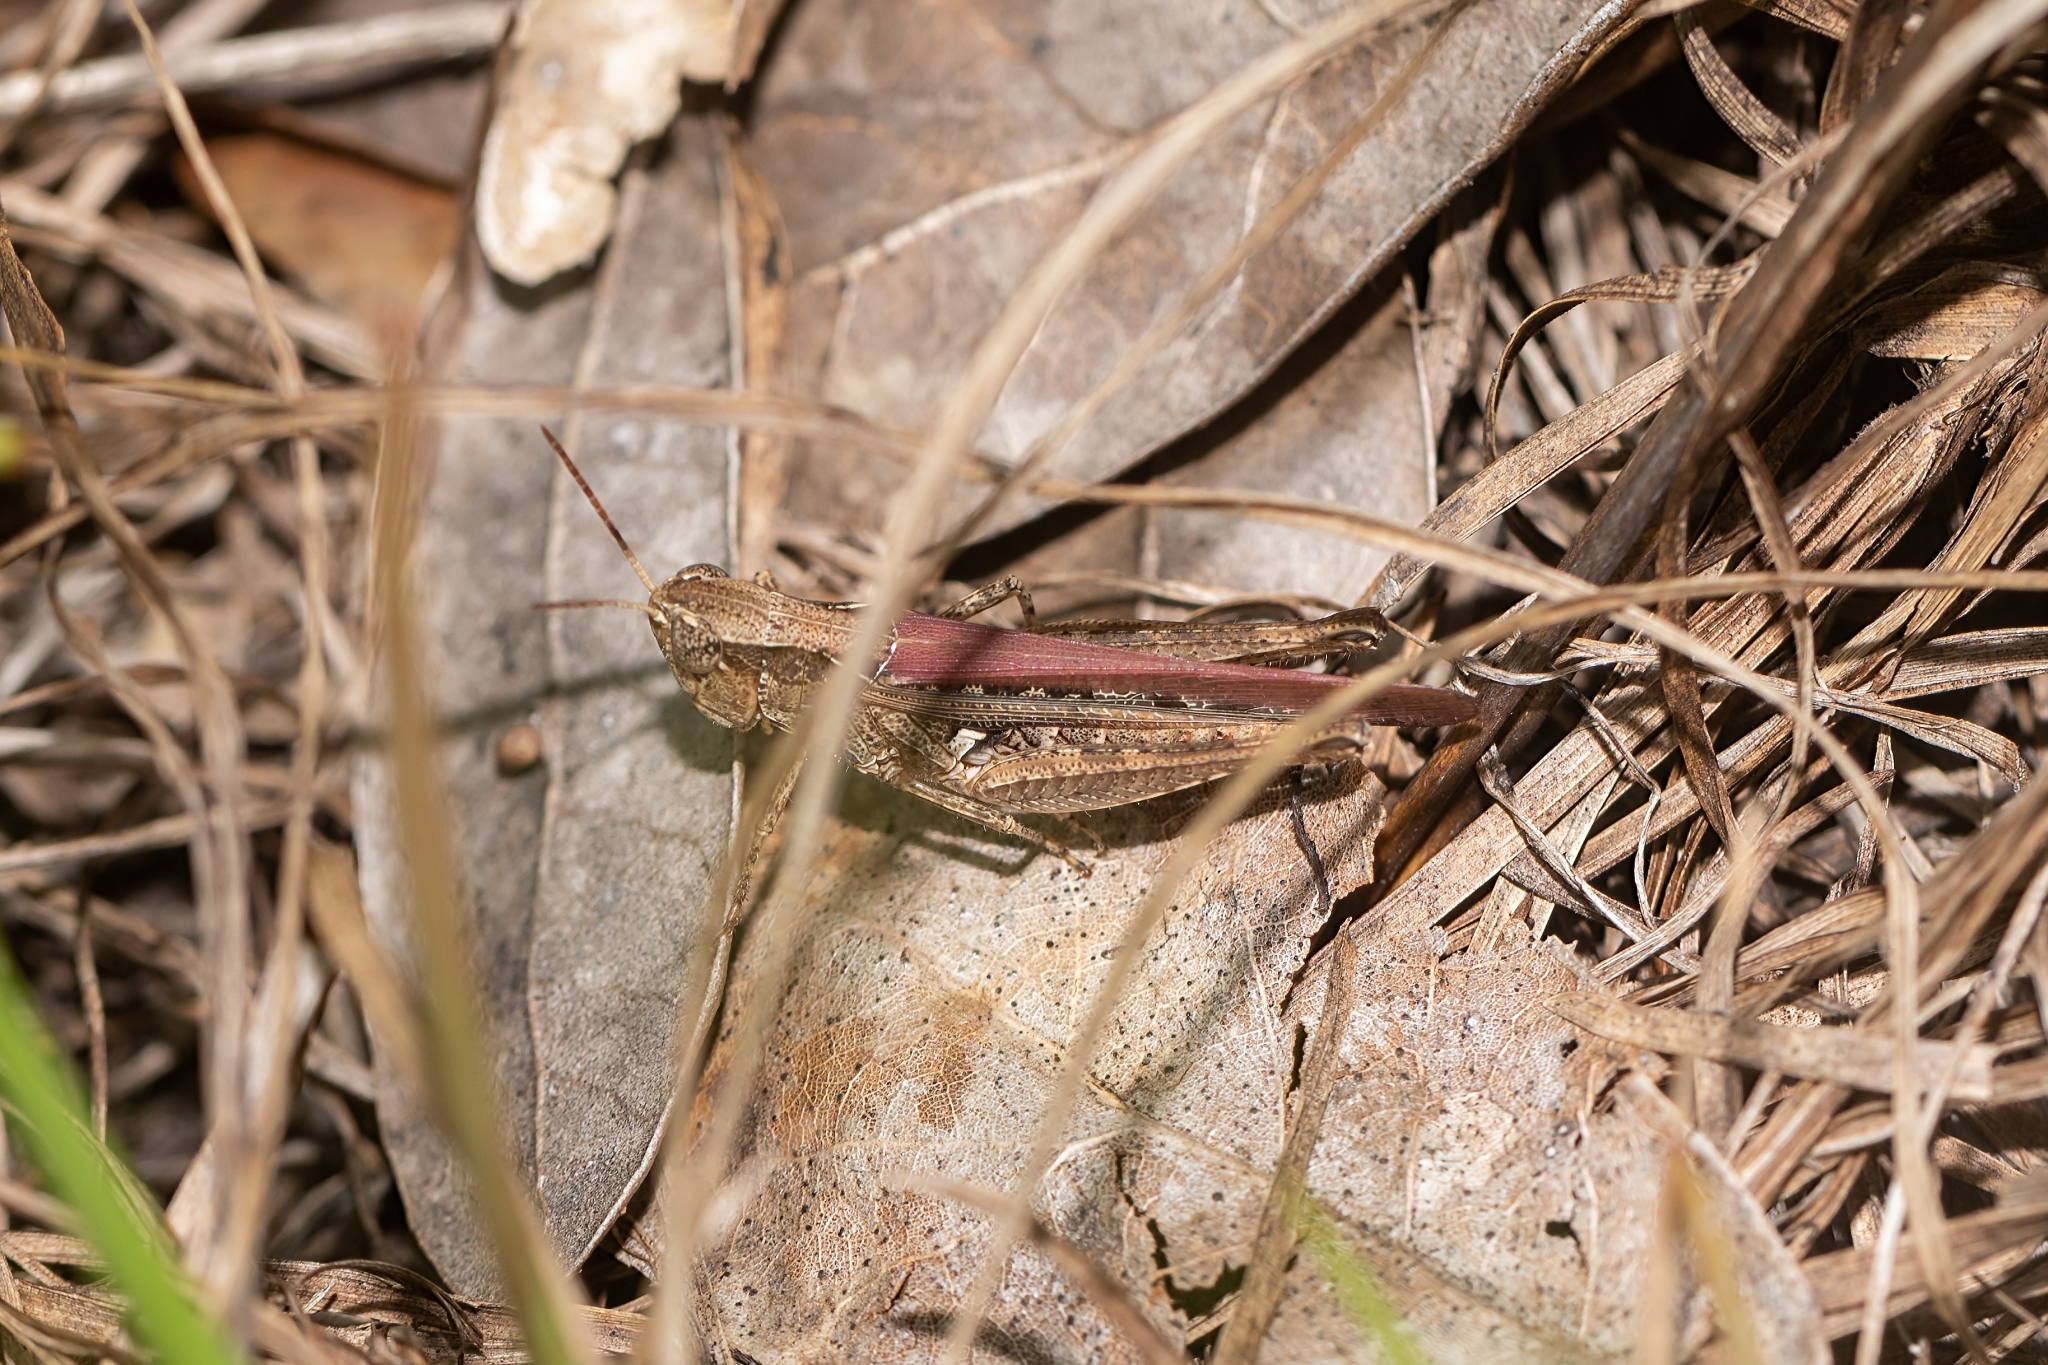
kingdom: Animalia
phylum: Arthropoda
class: Insecta
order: Orthoptera
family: Acrididae
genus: Orphulella
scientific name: Orphulella pelidna
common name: Spotted-wing grasshopper
